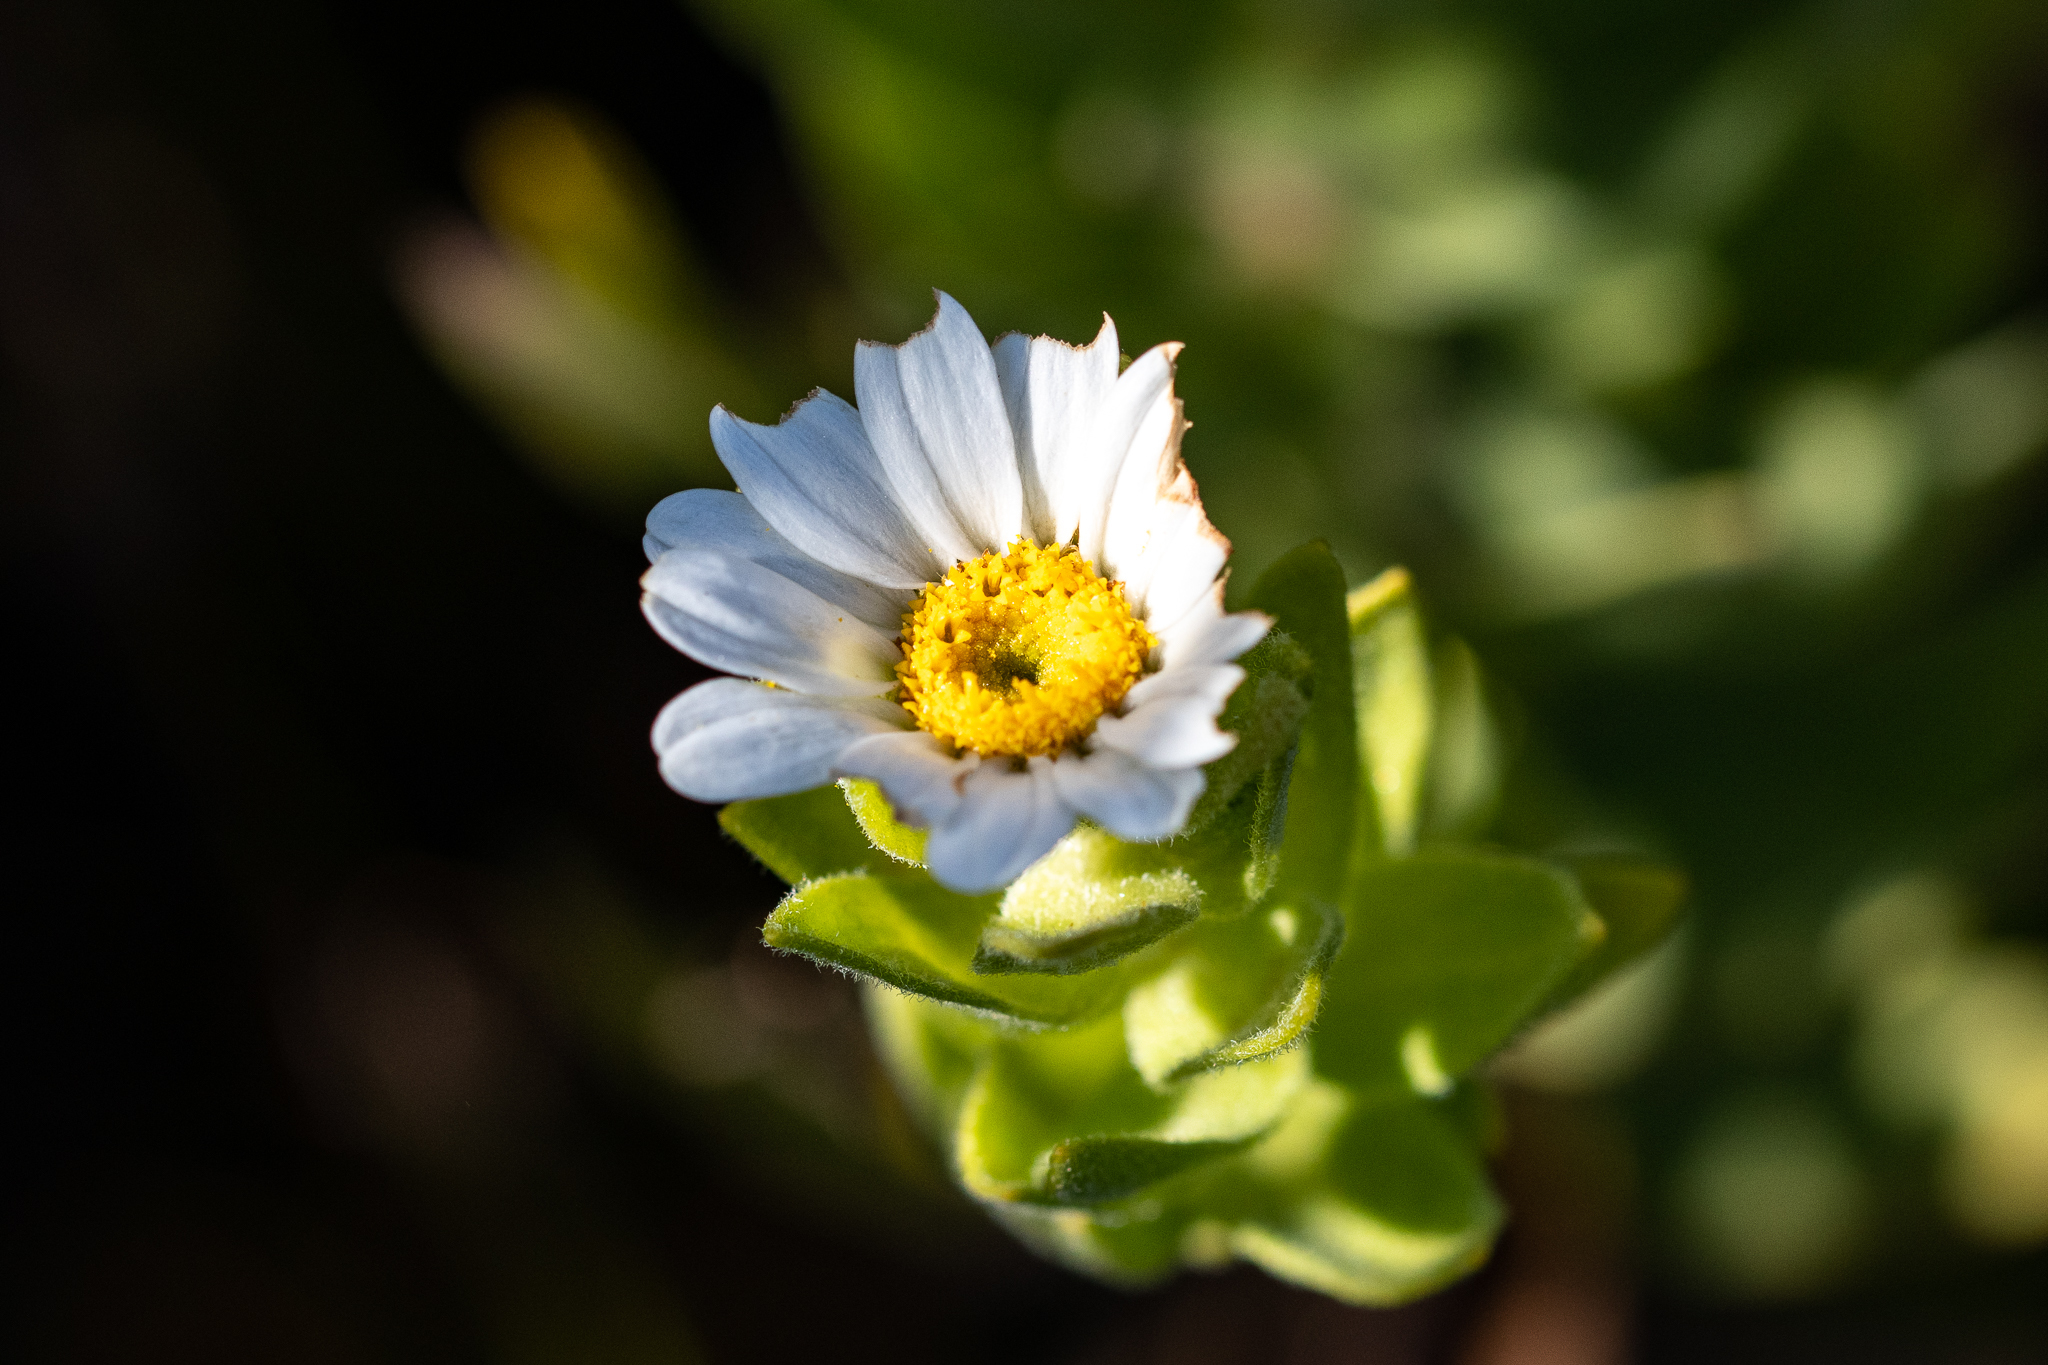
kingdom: Plantae
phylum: Tracheophyta
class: Magnoliopsida
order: Asterales
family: Asteraceae
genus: Osmitopsis
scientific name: Osmitopsis asteriscoides
